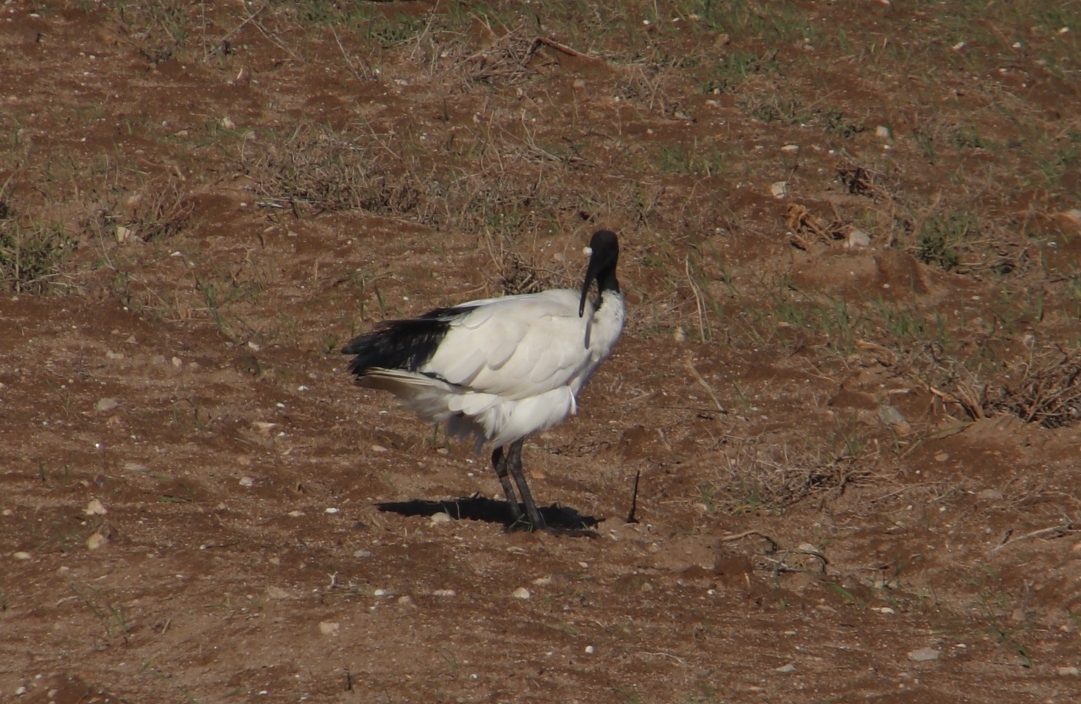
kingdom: Animalia
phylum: Chordata
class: Aves
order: Pelecaniformes
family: Threskiornithidae
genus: Threskiornis
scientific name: Threskiornis aethiopicus
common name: Sacred ibis
